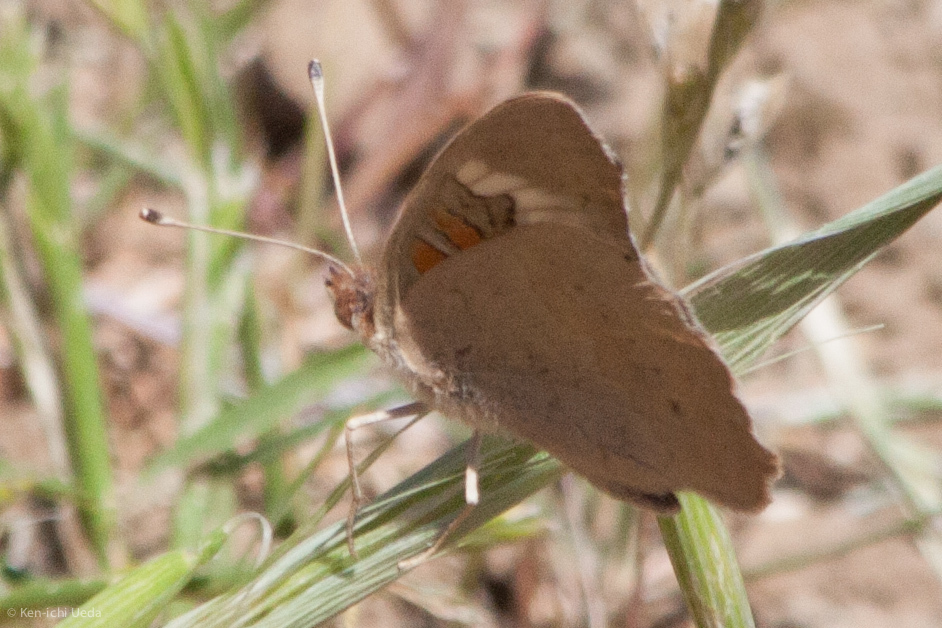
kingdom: Animalia
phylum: Arthropoda
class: Insecta
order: Lepidoptera
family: Nymphalidae
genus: Junonia
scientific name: Junonia grisea
